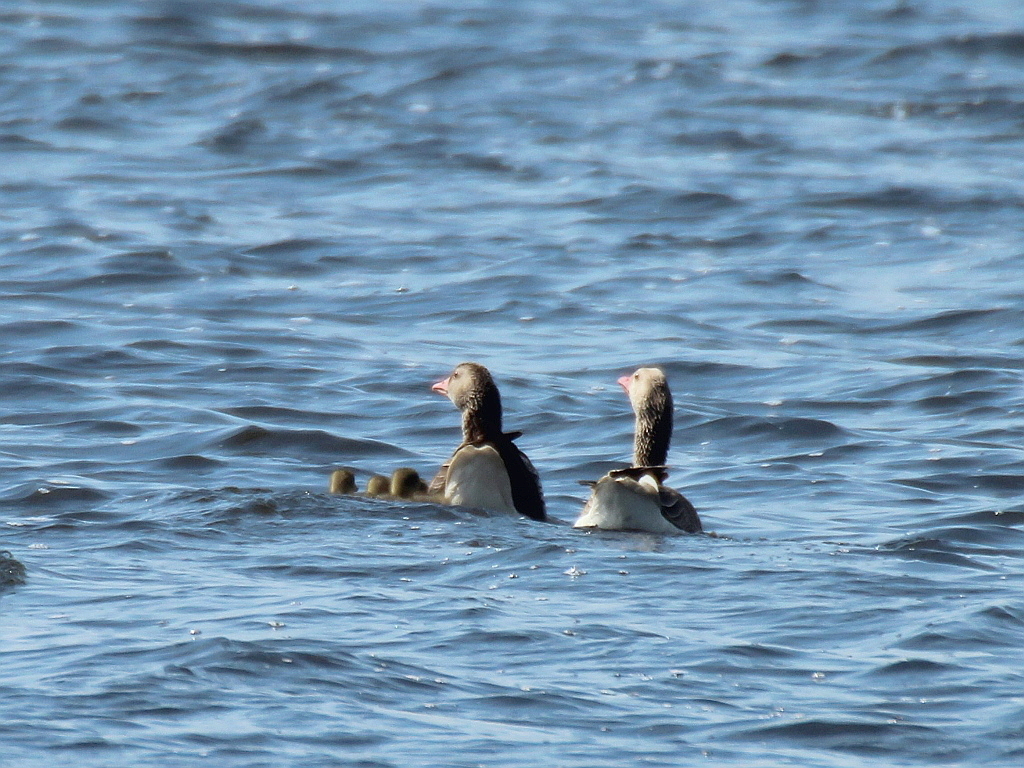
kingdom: Animalia
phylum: Chordata
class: Aves
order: Anseriformes
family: Anatidae
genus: Anser
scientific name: Anser anser
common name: Greylag goose
